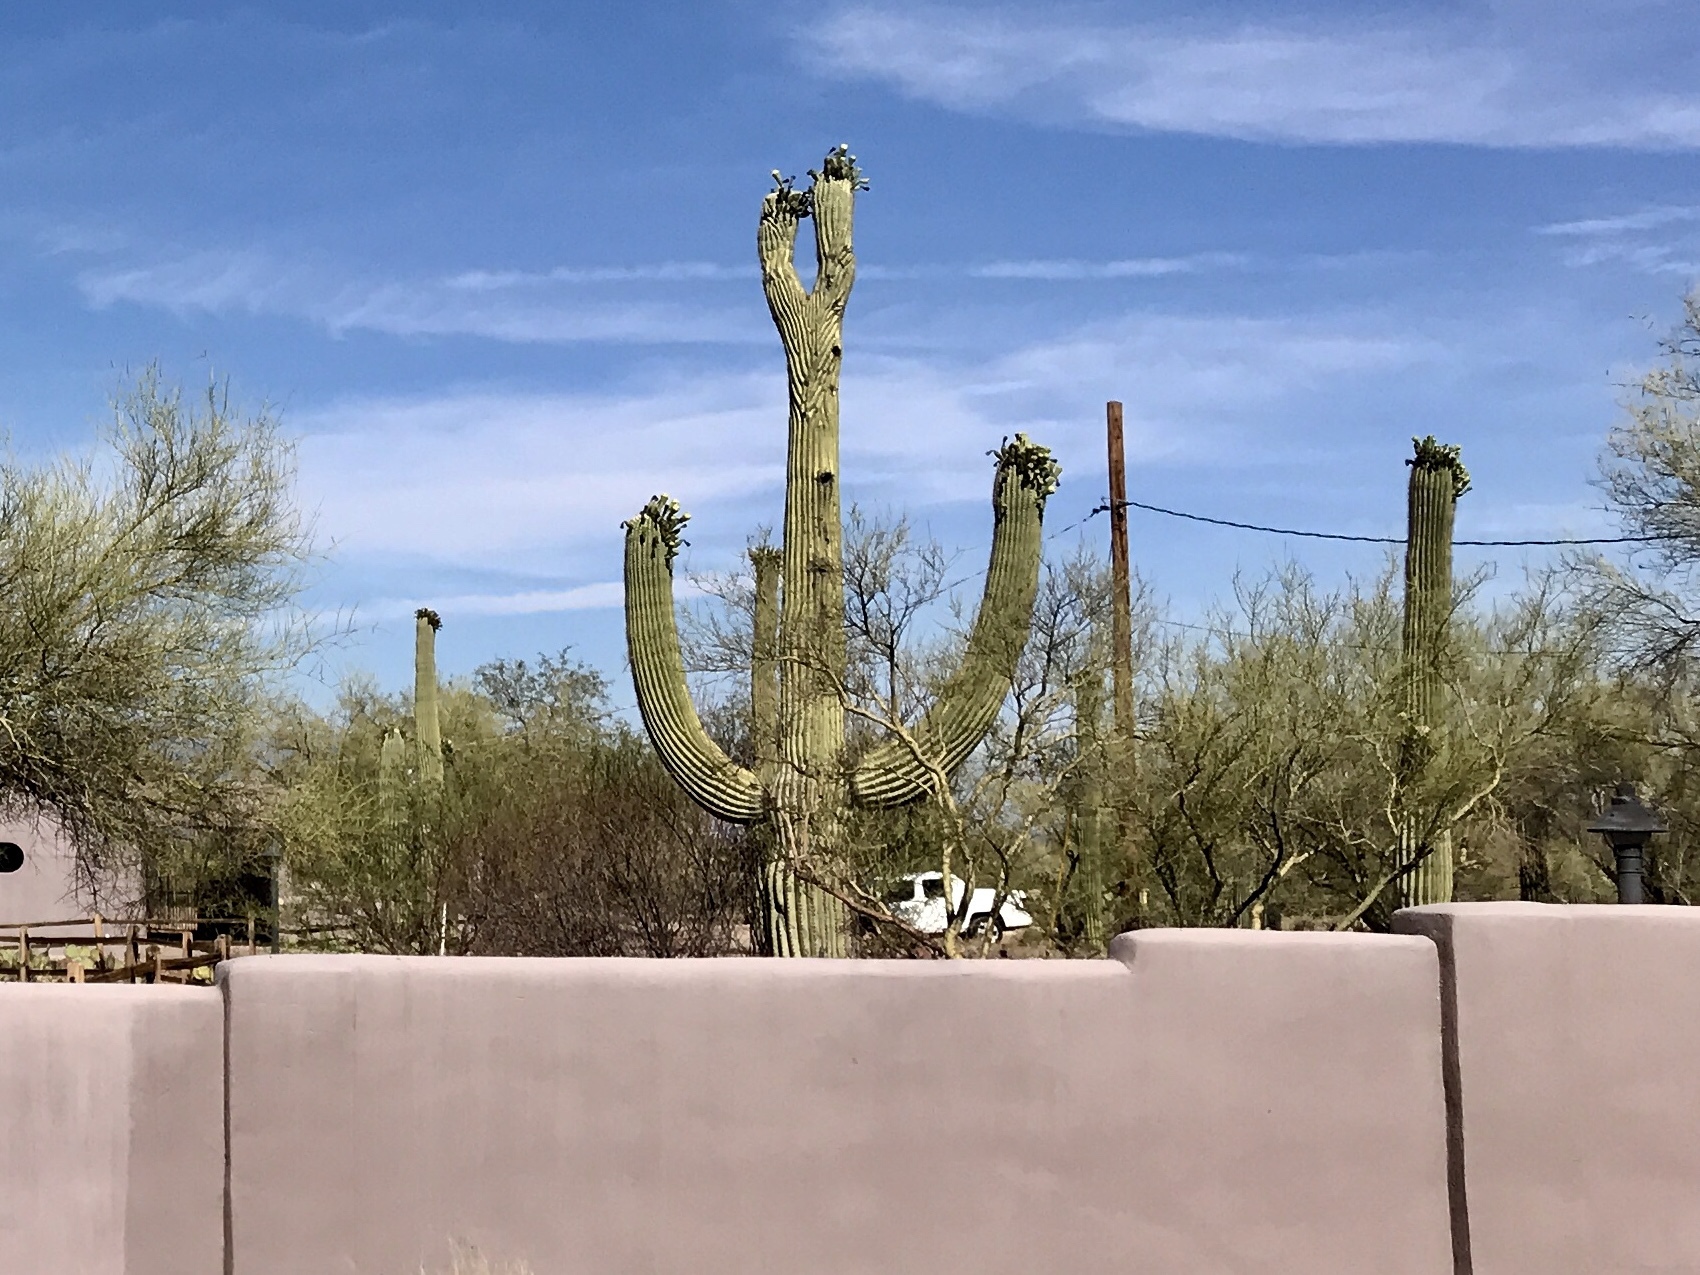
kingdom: Plantae
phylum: Tracheophyta
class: Magnoliopsida
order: Caryophyllales
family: Cactaceae
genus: Carnegiea
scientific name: Carnegiea gigantea
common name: Saguaro
